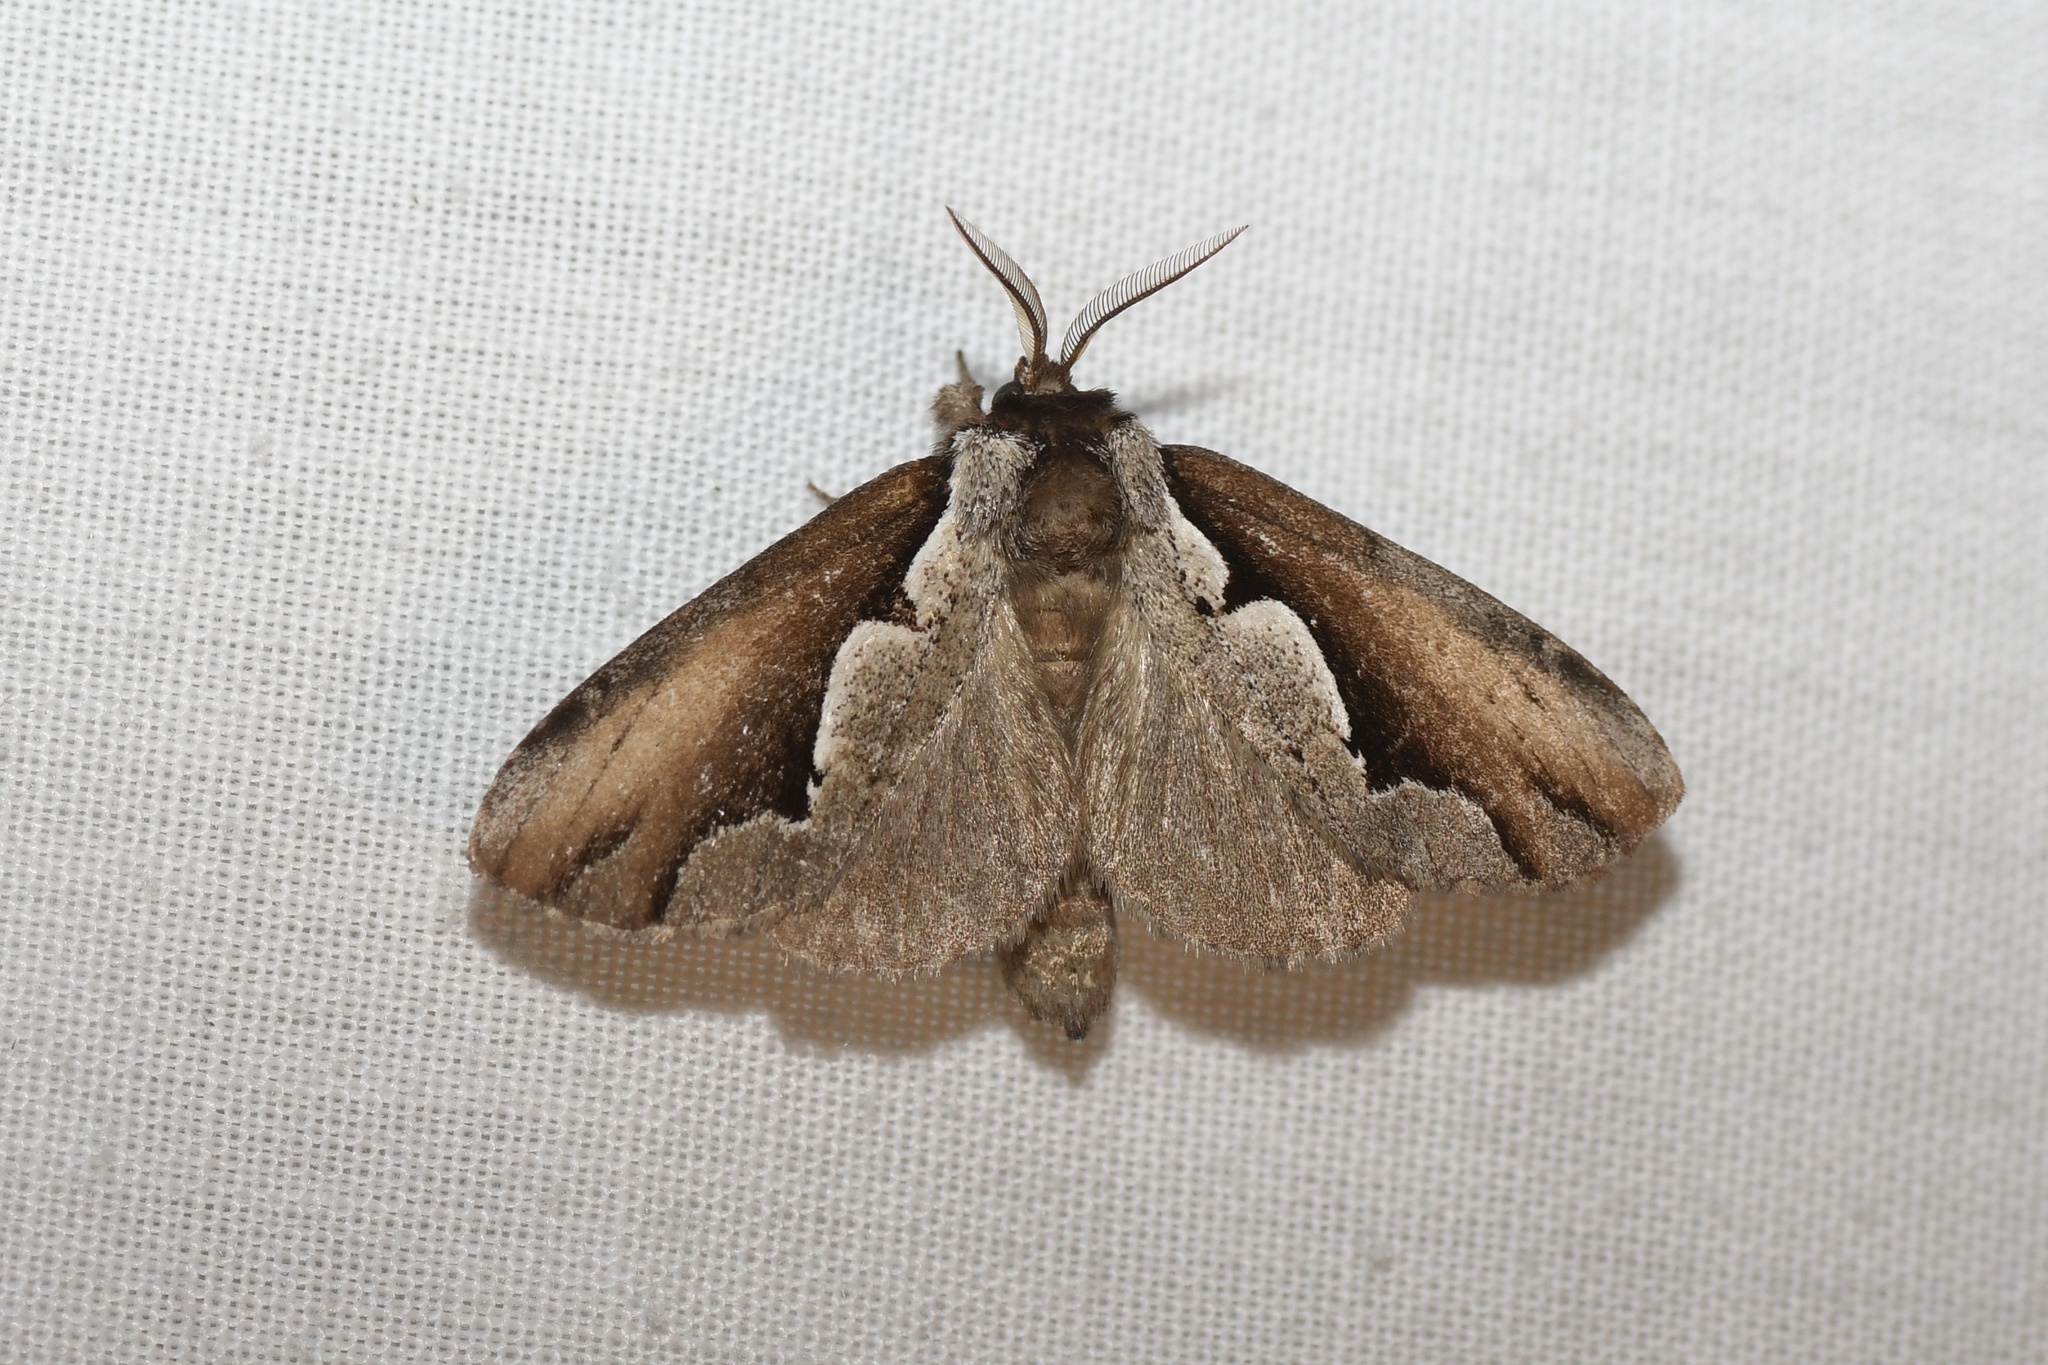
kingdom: Animalia
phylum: Arthropoda
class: Insecta
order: Lepidoptera
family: Notodontidae
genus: Nerice
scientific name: Nerice bidentata
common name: Double-toothed prominent
